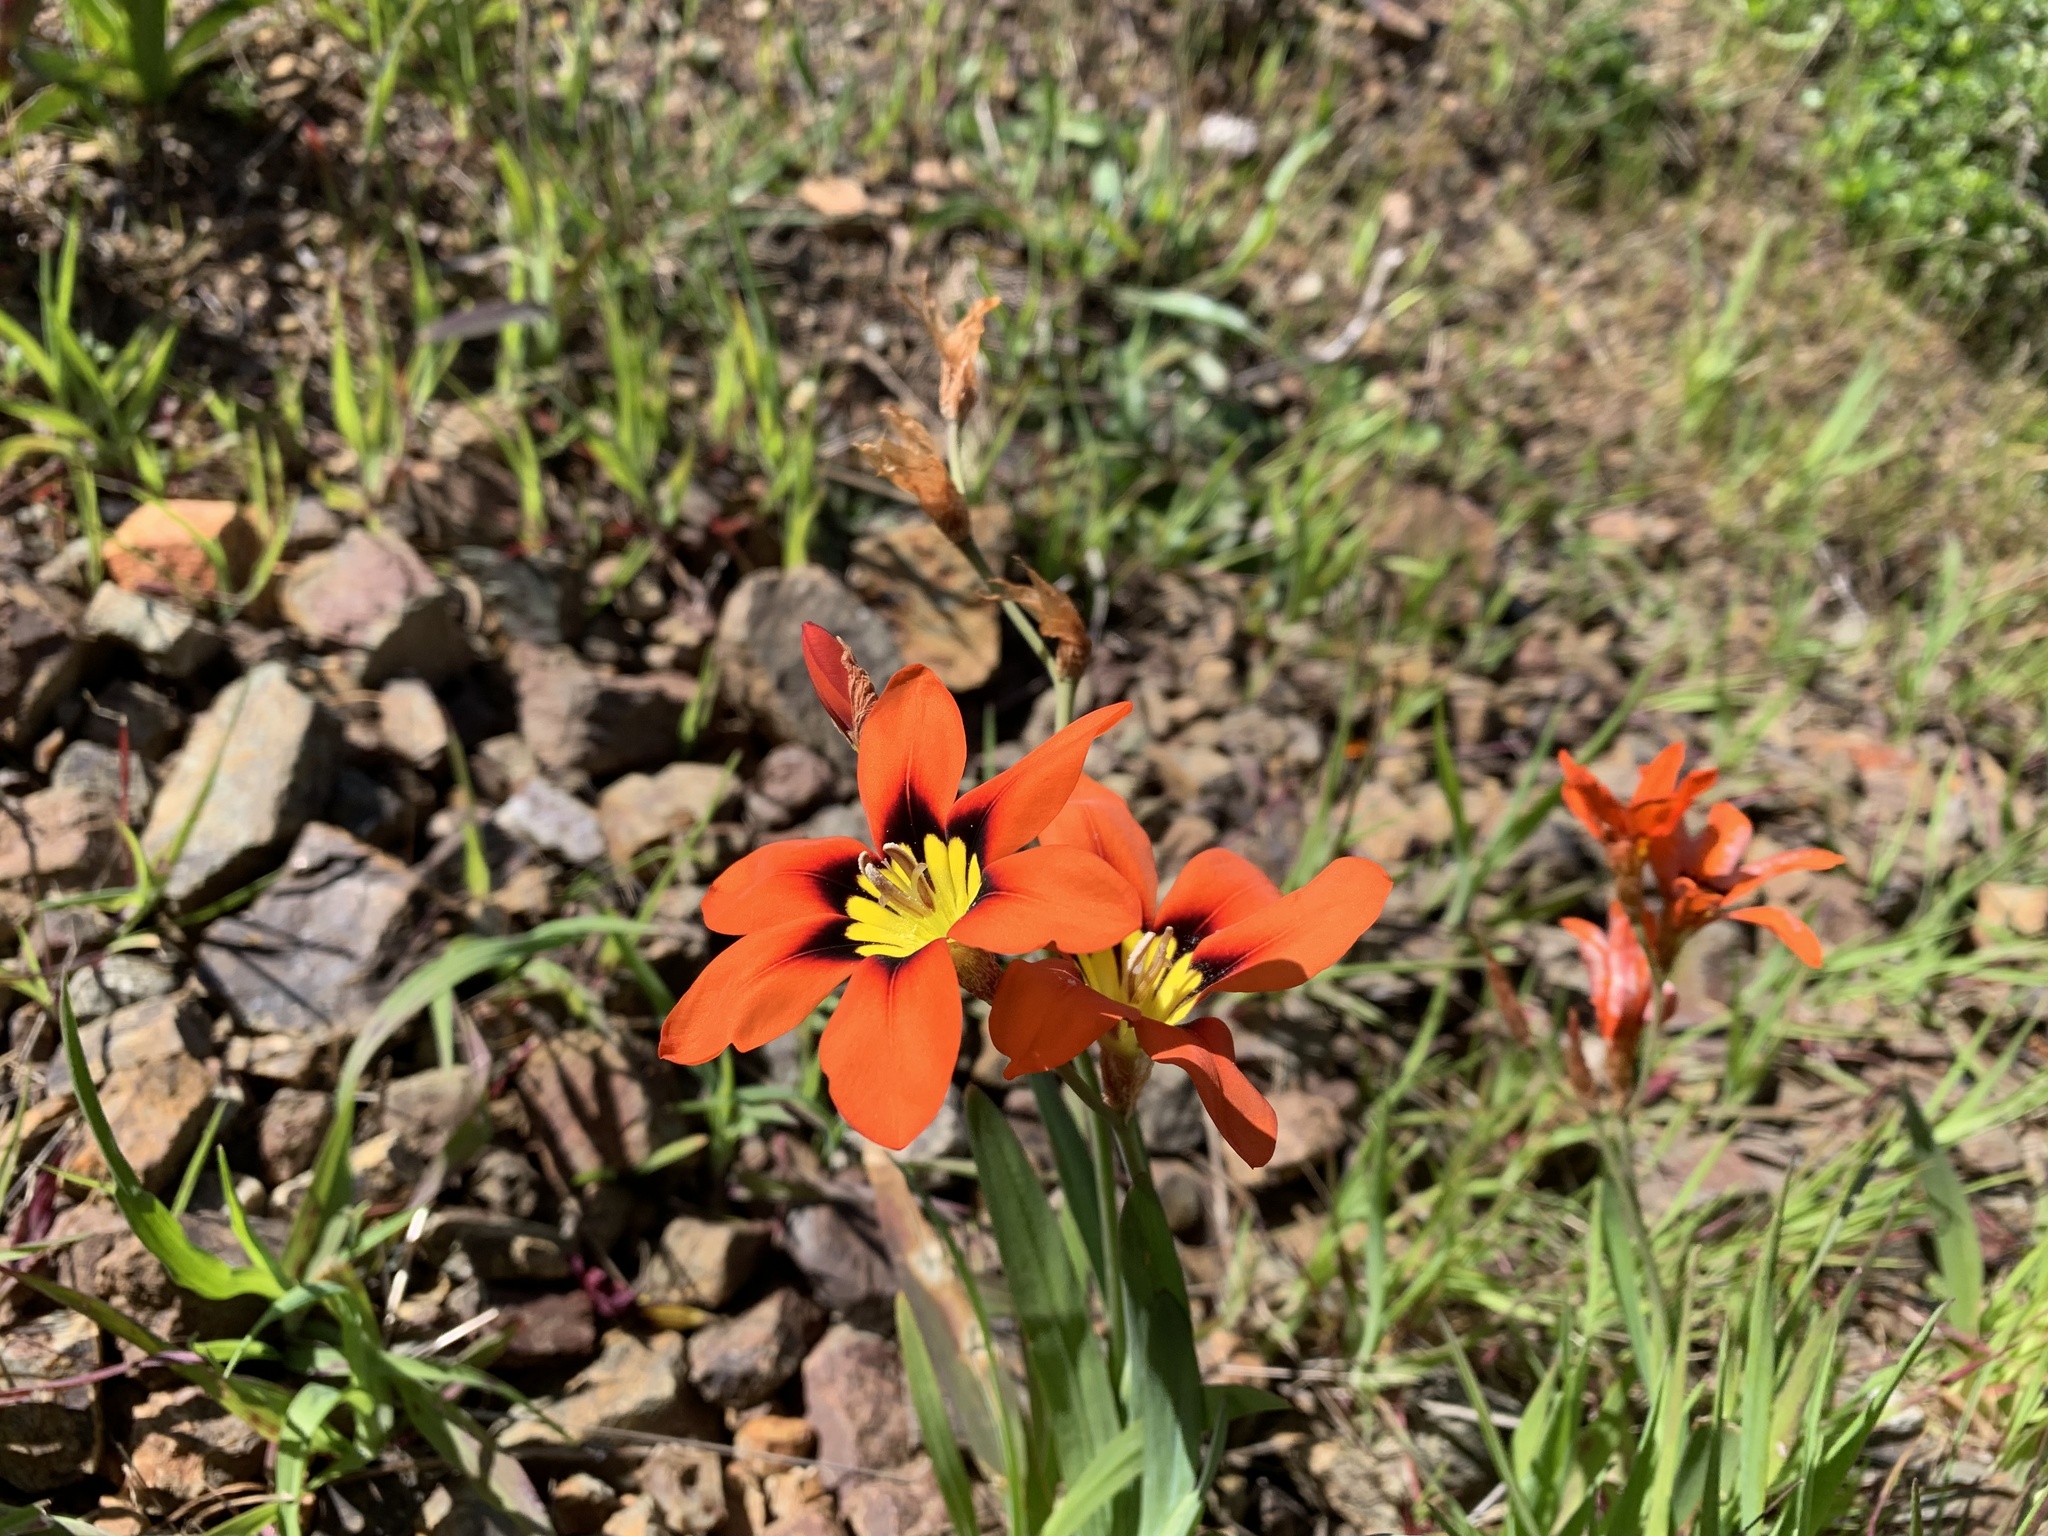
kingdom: Plantae
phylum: Tracheophyta
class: Liliopsida
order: Asparagales
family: Iridaceae
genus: Sparaxis
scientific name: Sparaxis tricolor
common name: Wandflower
